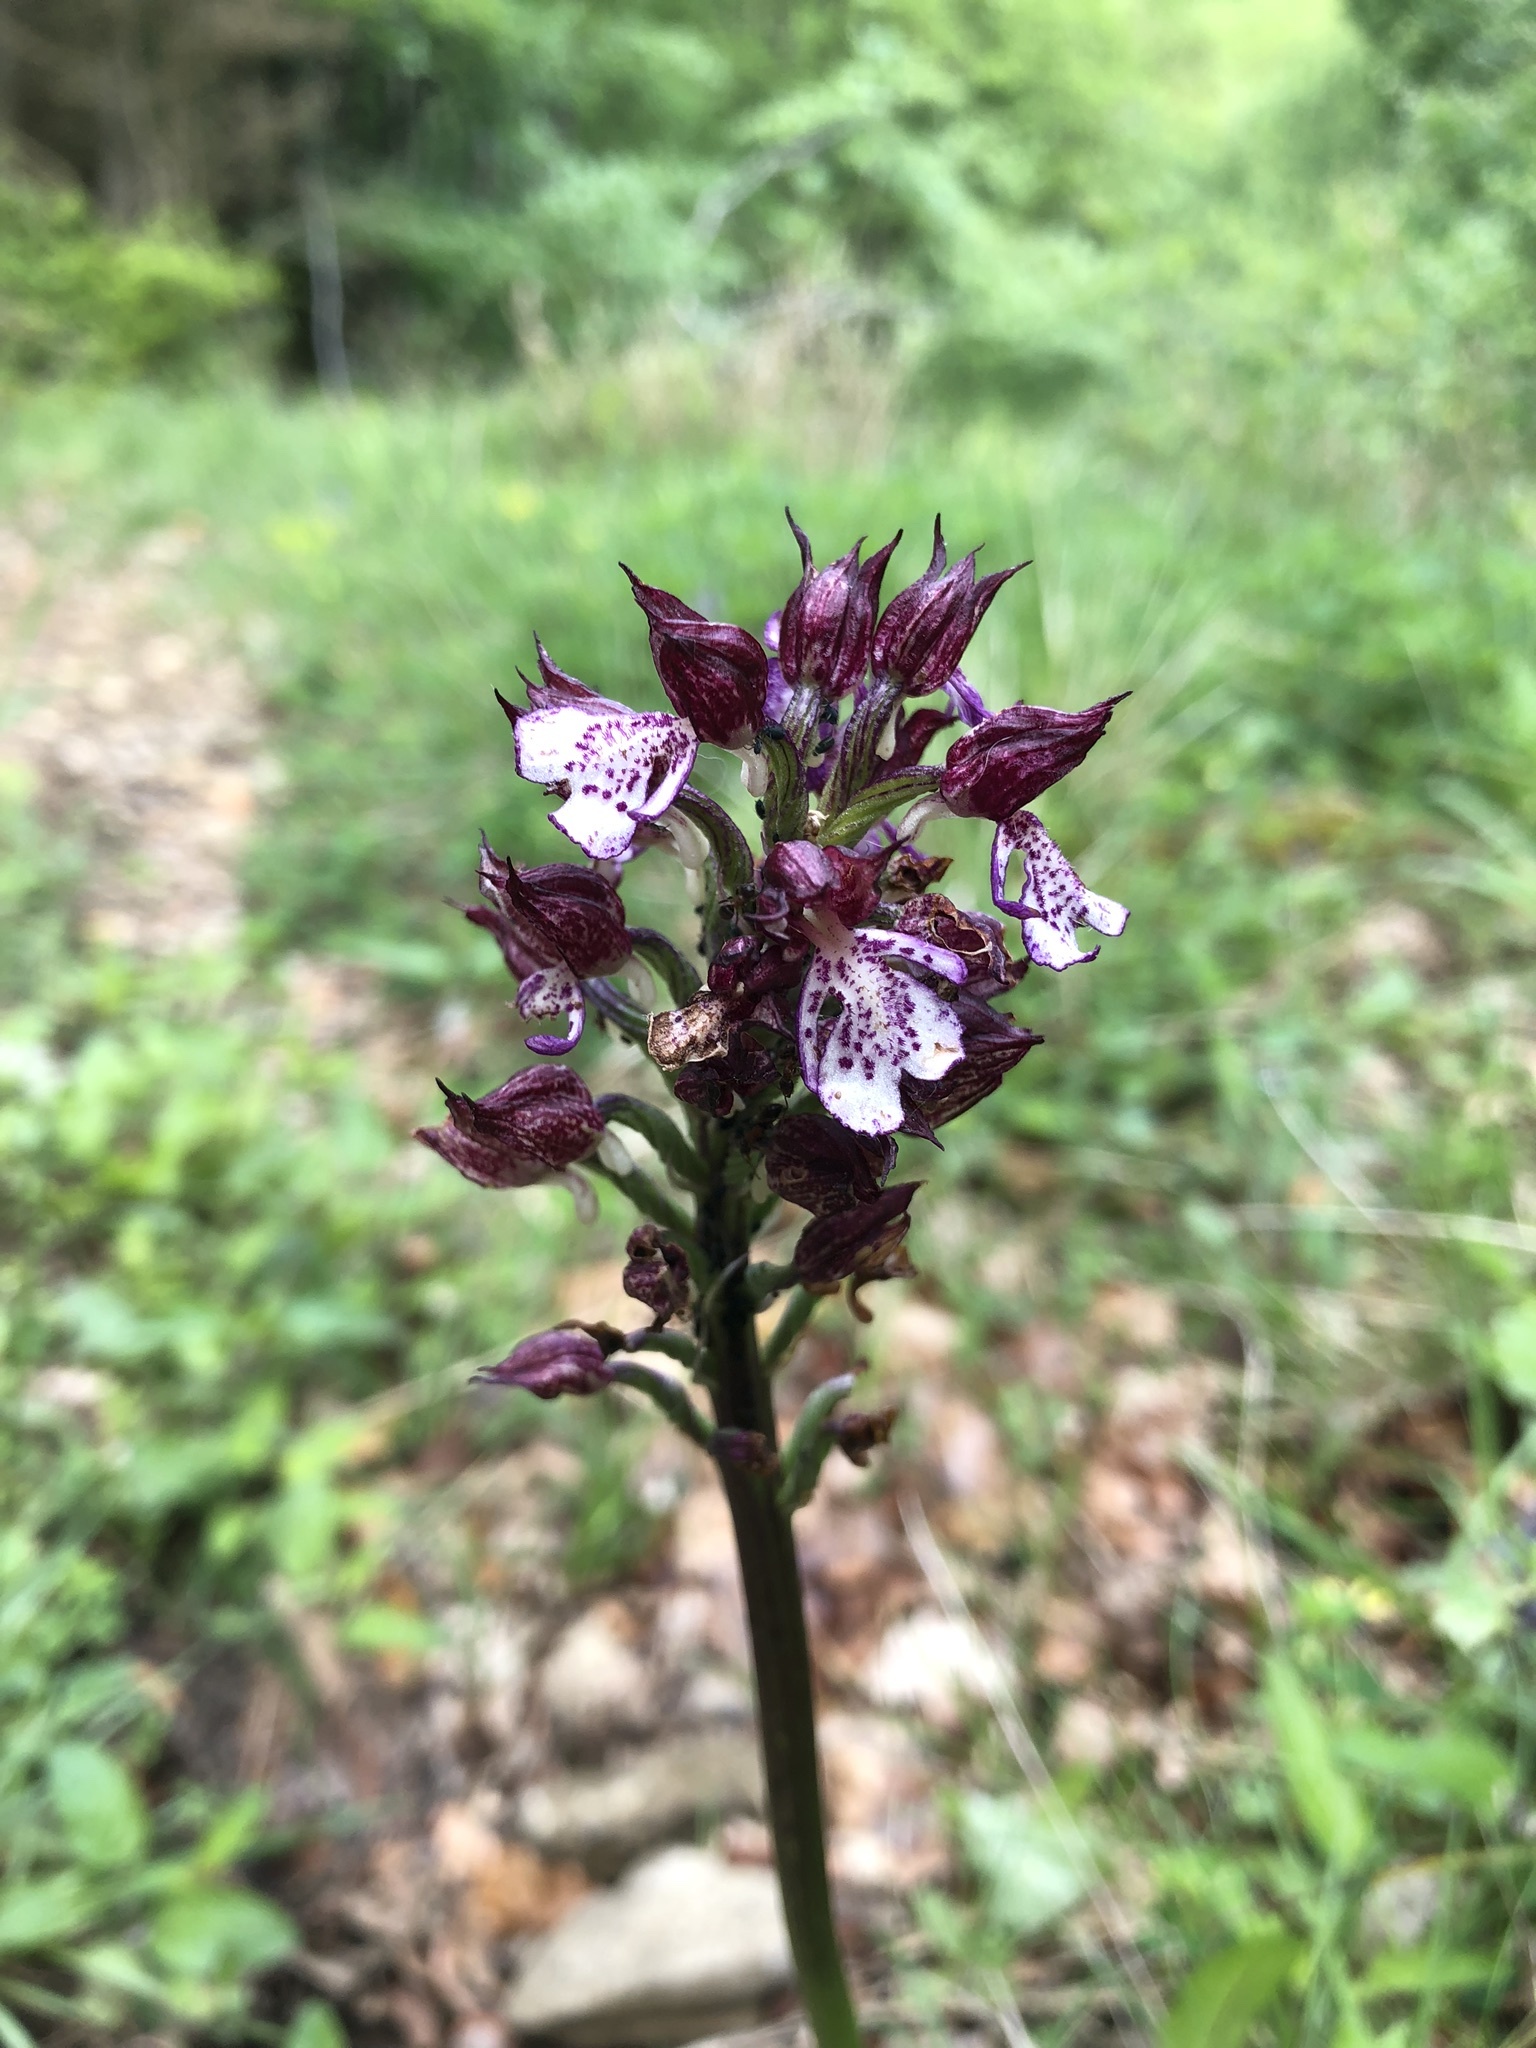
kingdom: Plantae
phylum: Tracheophyta
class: Liliopsida
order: Asparagales
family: Orchidaceae
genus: Orchis
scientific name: Orchis purpurea
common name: Lady orchid
